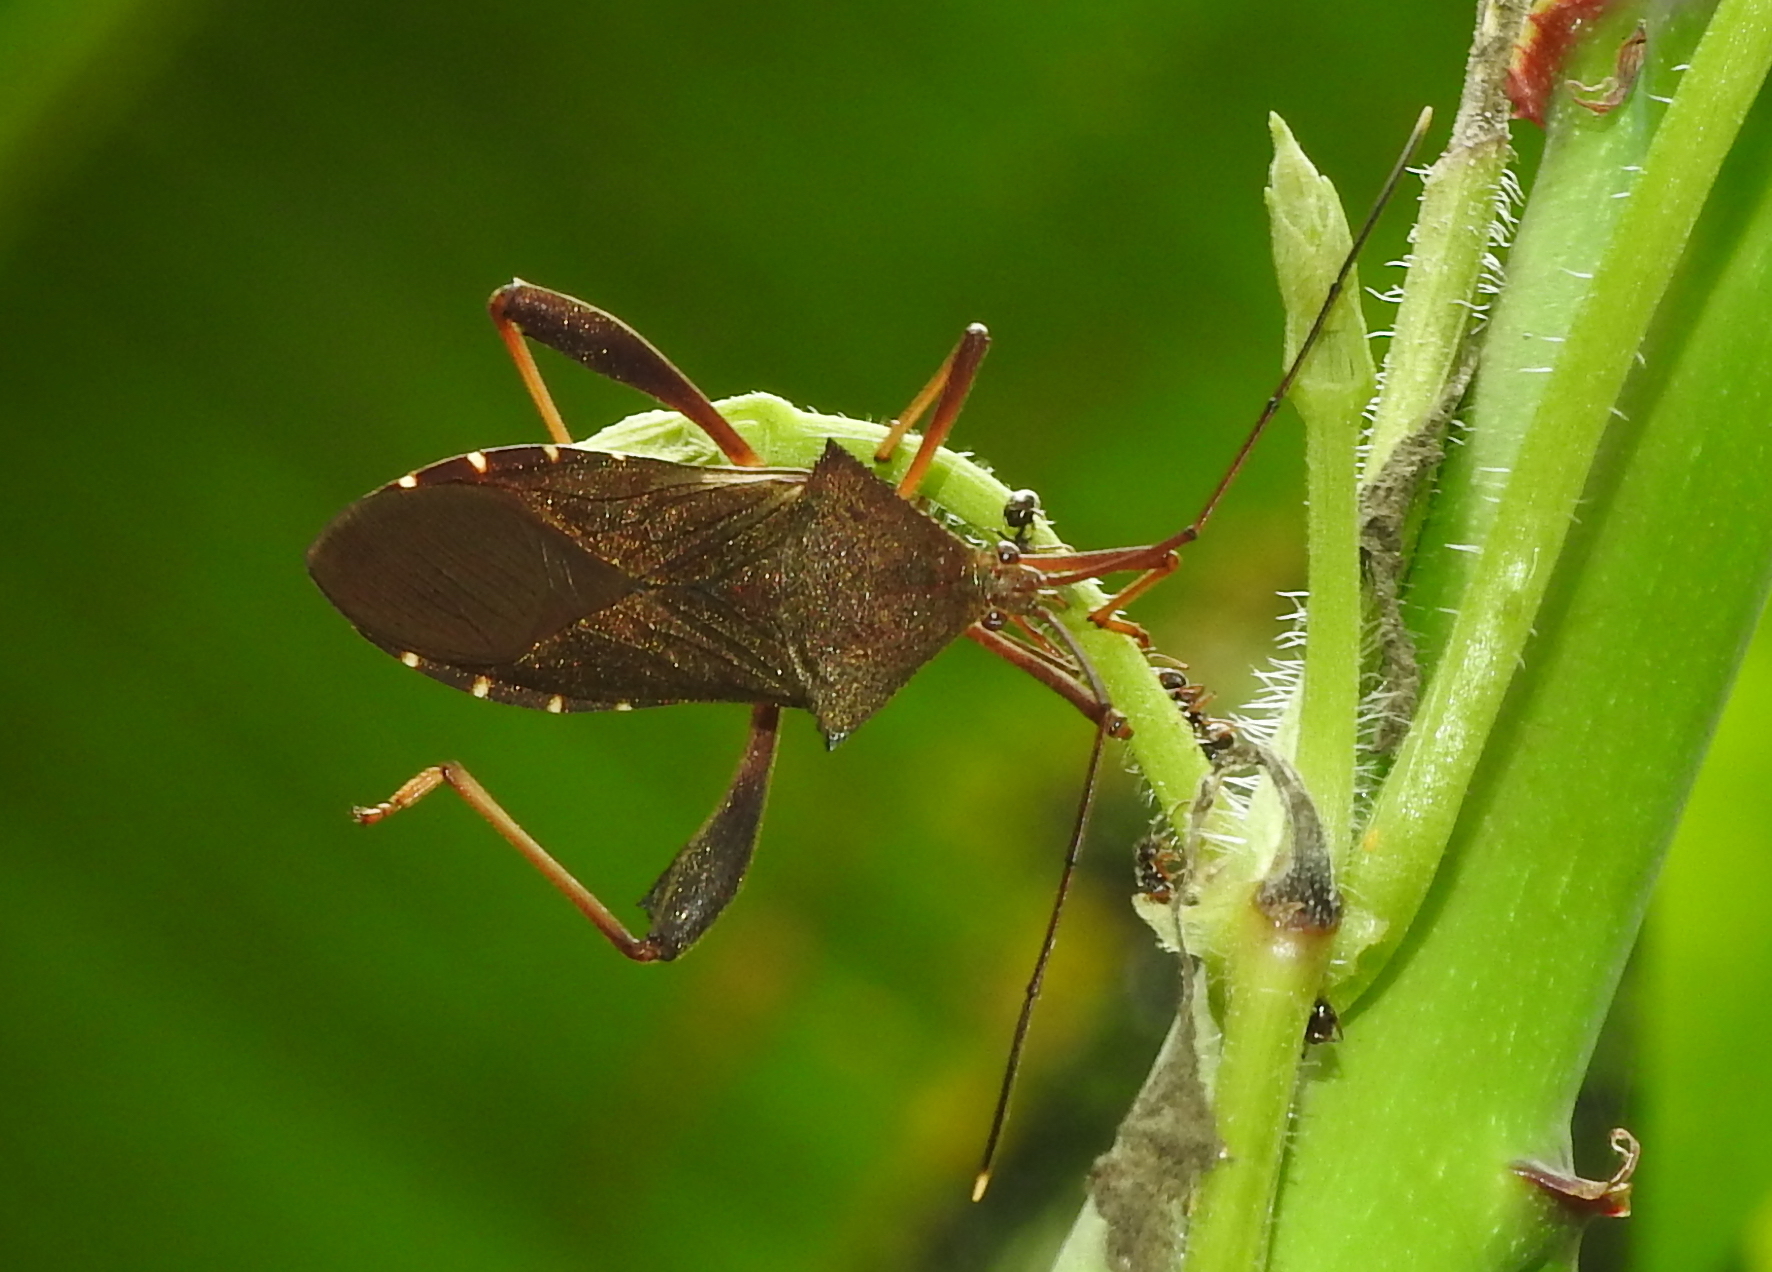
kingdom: Animalia
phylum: Arthropoda
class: Insecta
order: Hemiptera
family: Coreidae
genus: Mictis
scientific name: Mictis longicornis
